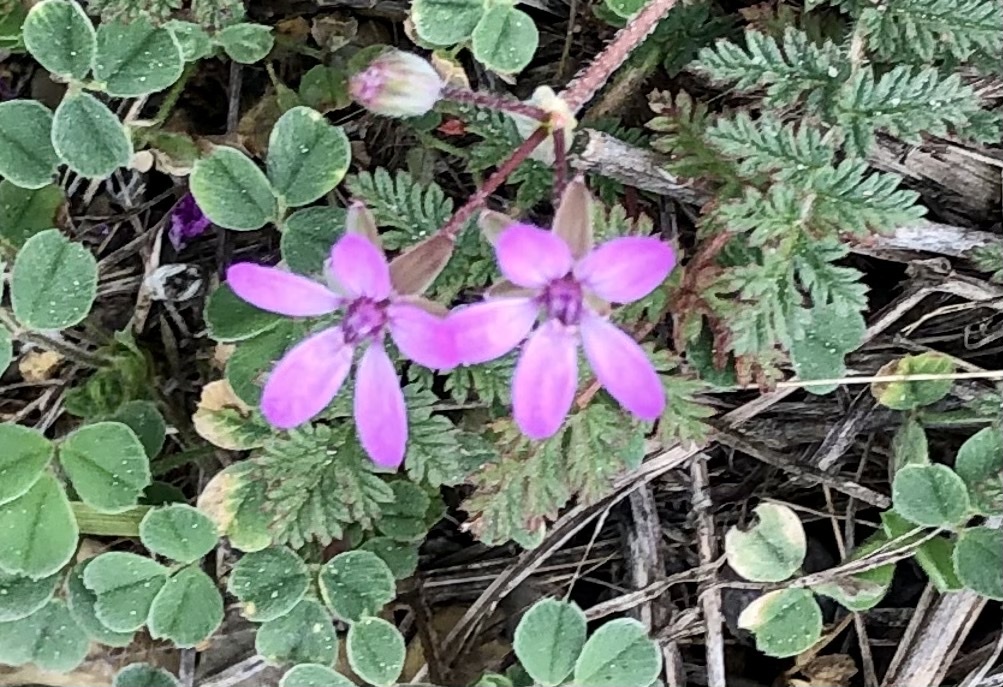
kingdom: Plantae
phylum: Tracheophyta
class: Magnoliopsida
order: Geraniales
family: Geraniaceae
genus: Erodium
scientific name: Erodium cicutarium
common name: Common stork's-bill
